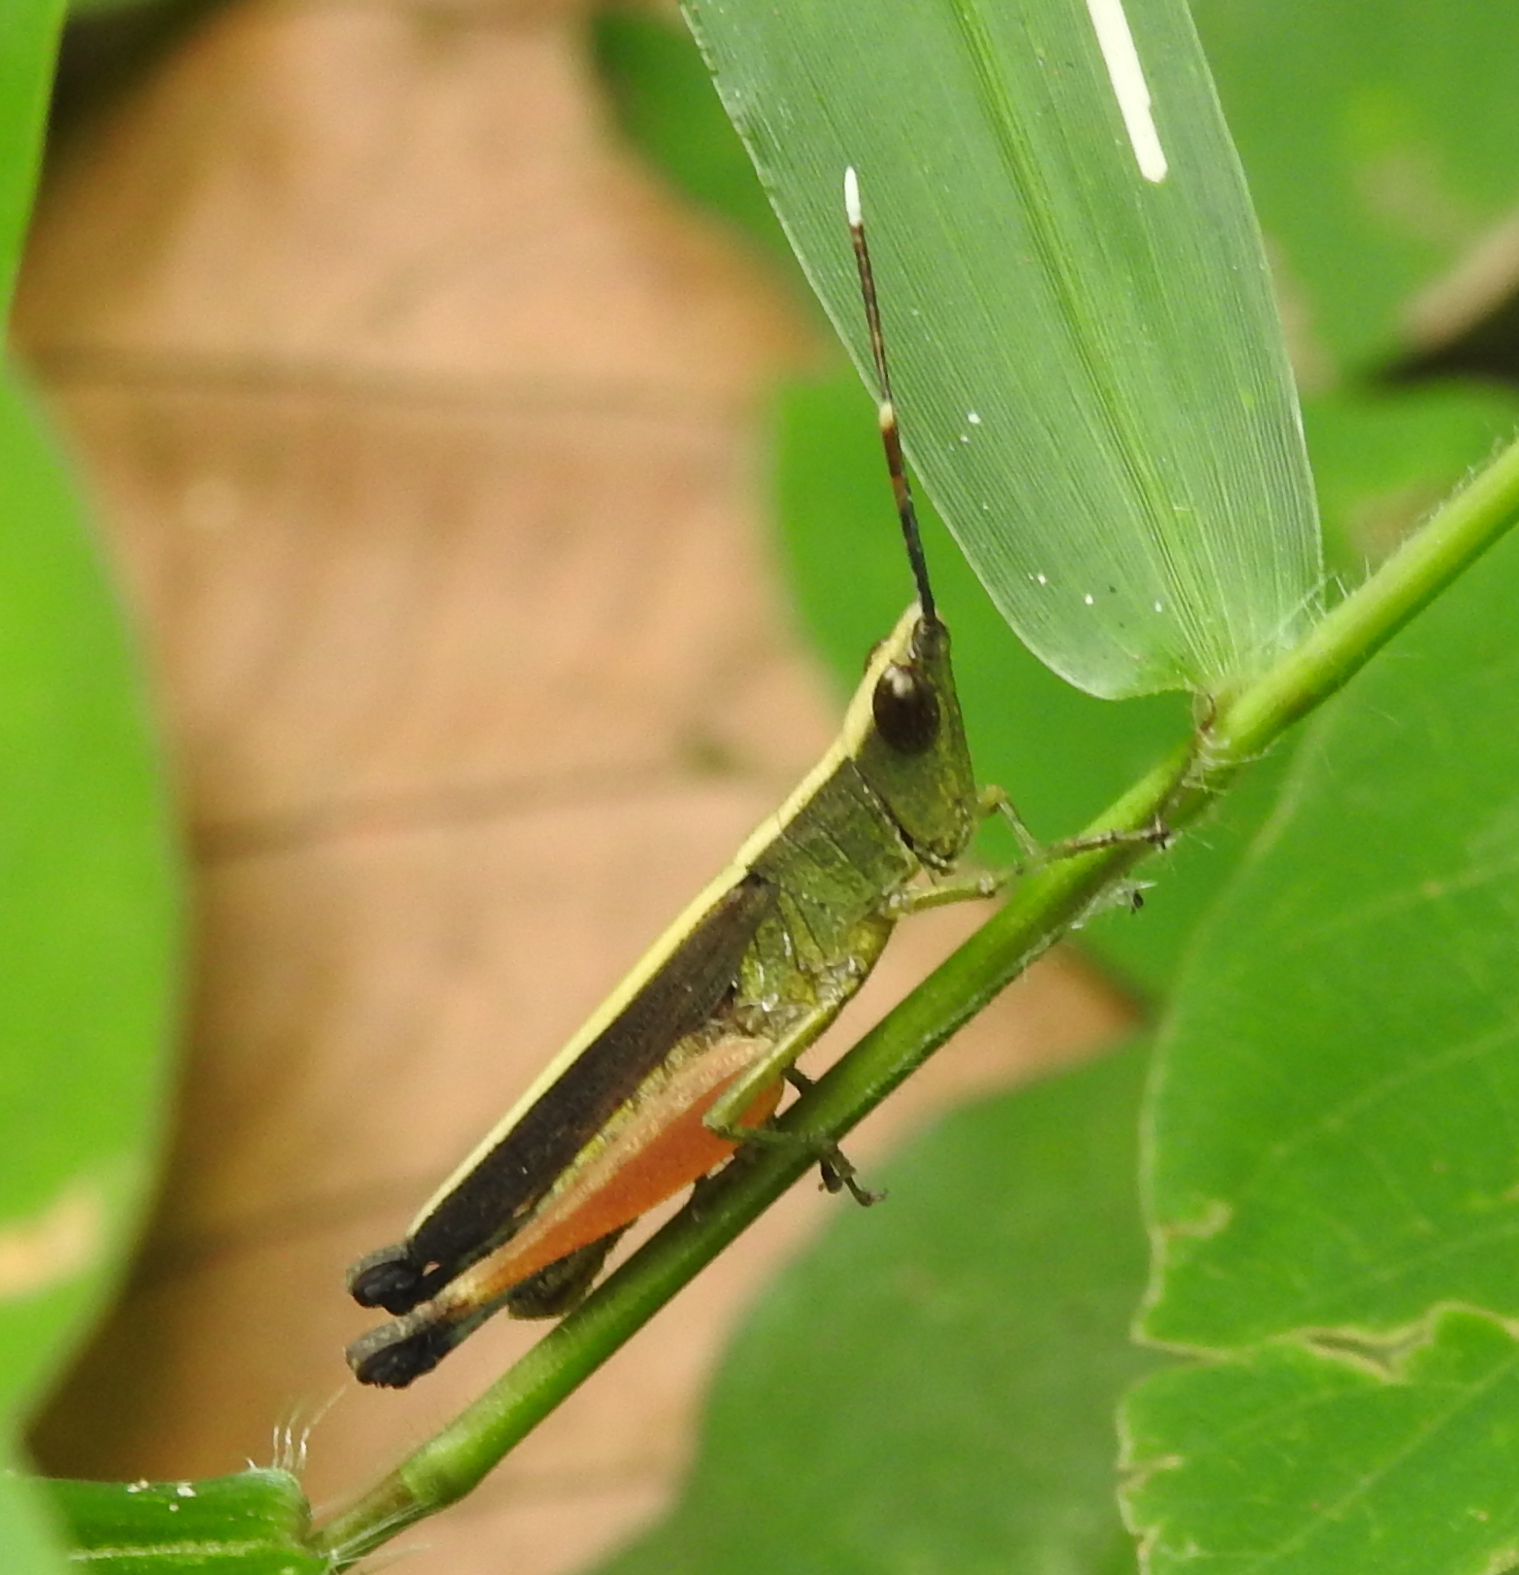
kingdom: Animalia
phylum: Arthropoda
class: Insecta
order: Orthoptera
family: Acrididae
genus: Phlaeoba
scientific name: Phlaeoba antennata
